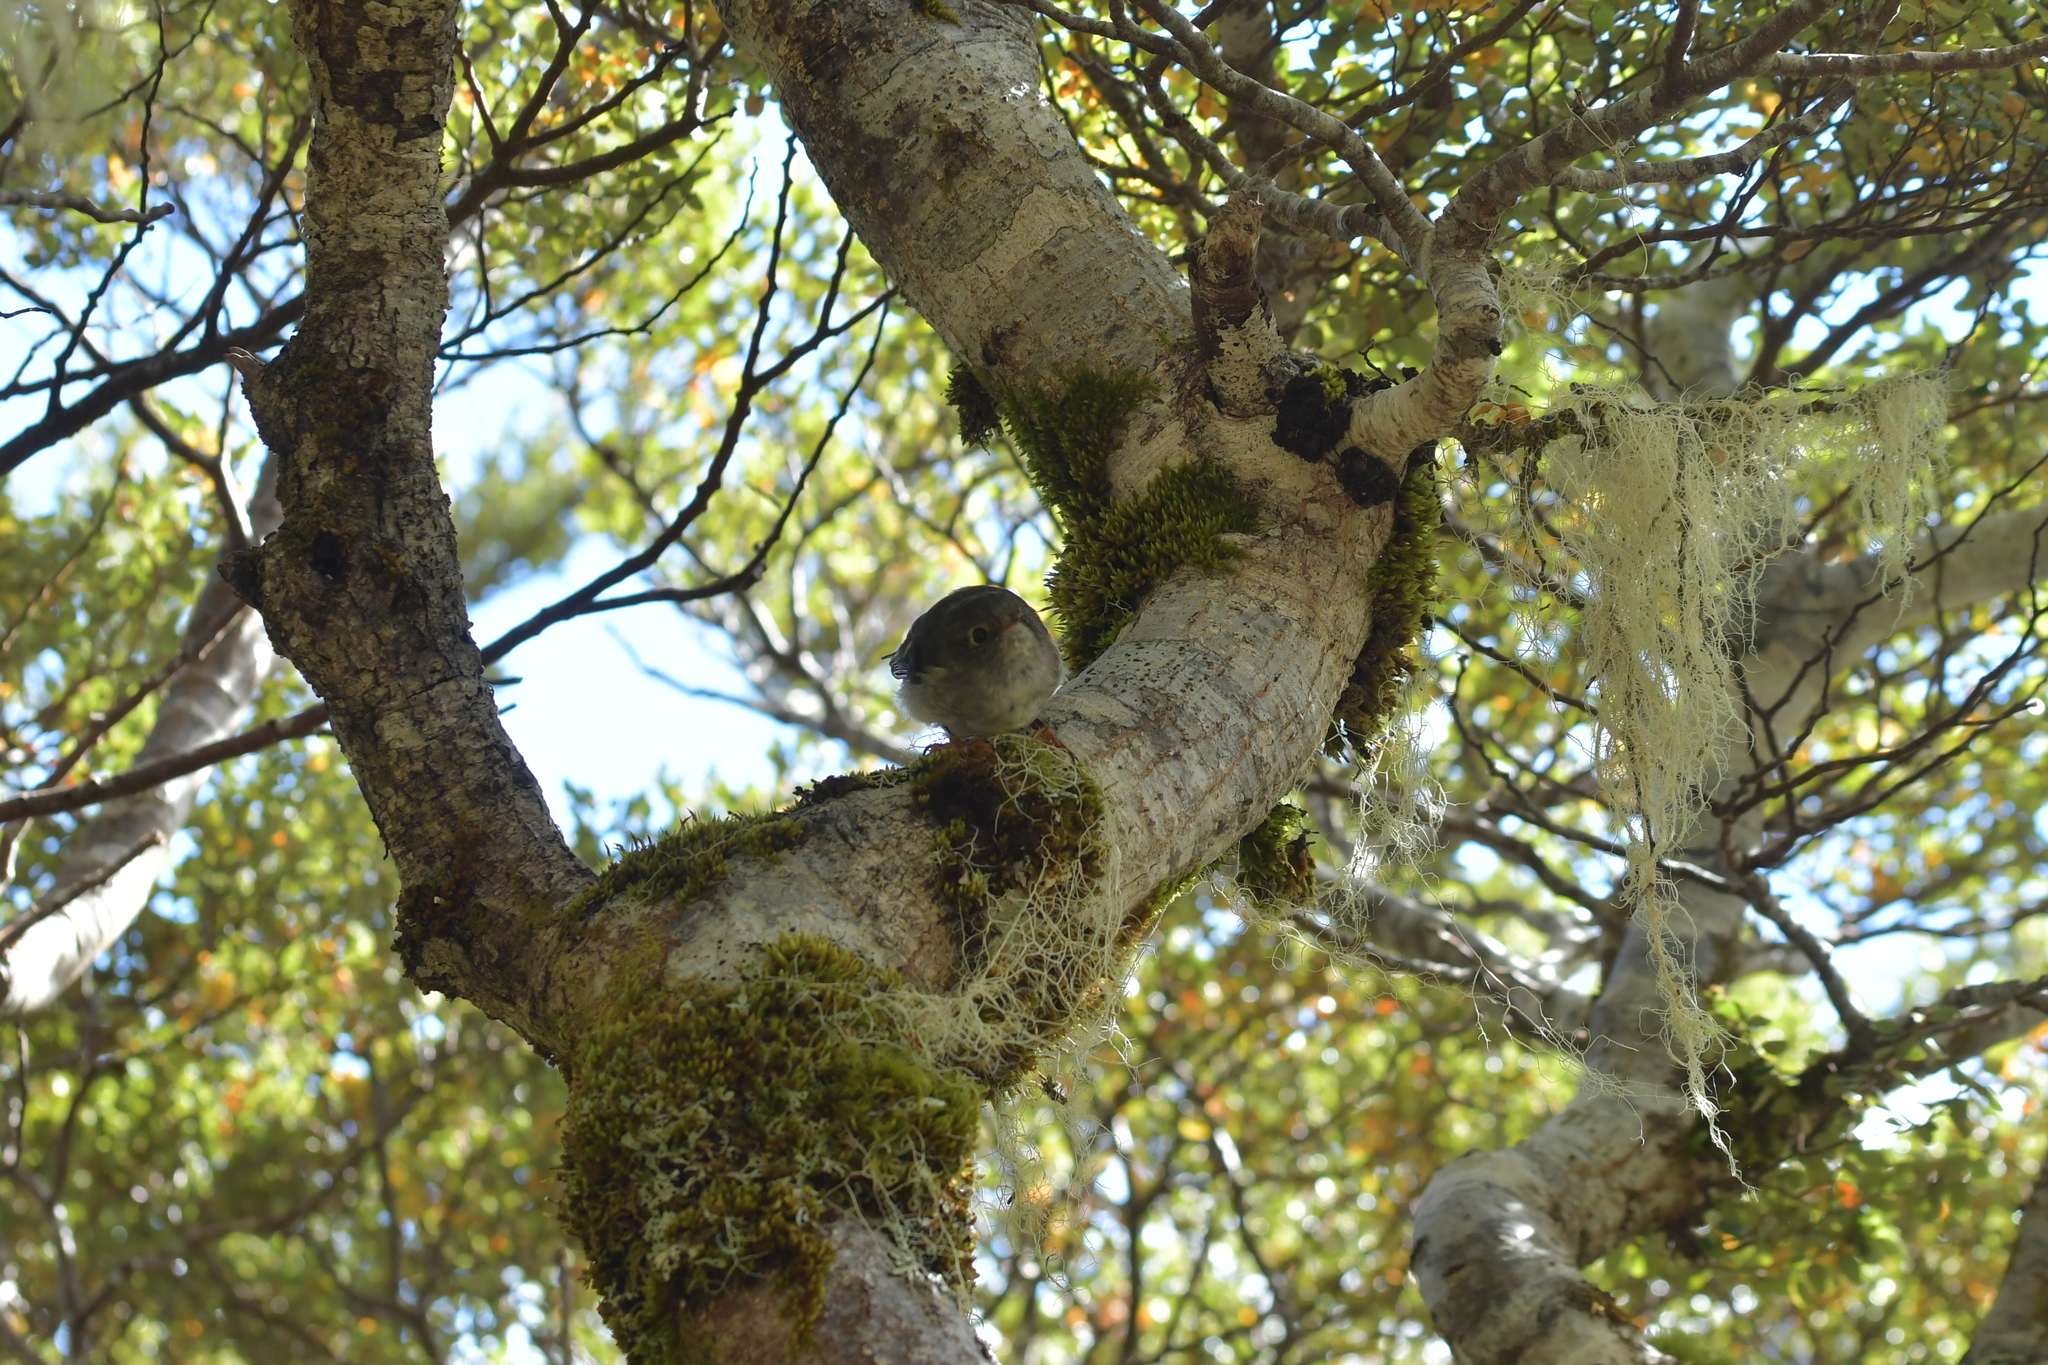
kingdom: Animalia
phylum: Chordata
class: Aves
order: Passeriformes
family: Petroicidae
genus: Petroica
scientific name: Petroica macrocephala
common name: Tomtit
